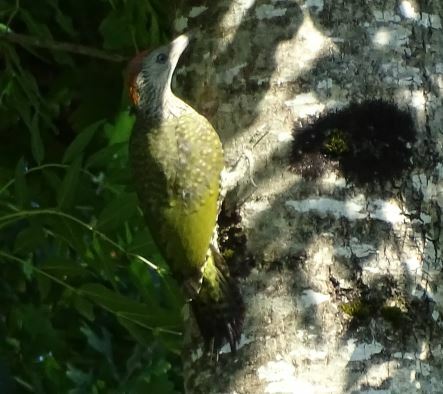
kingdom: Animalia
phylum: Chordata
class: Aves
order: Piciformes
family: Picidae
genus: Picus
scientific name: Picus viridis
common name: European green woodpecker
